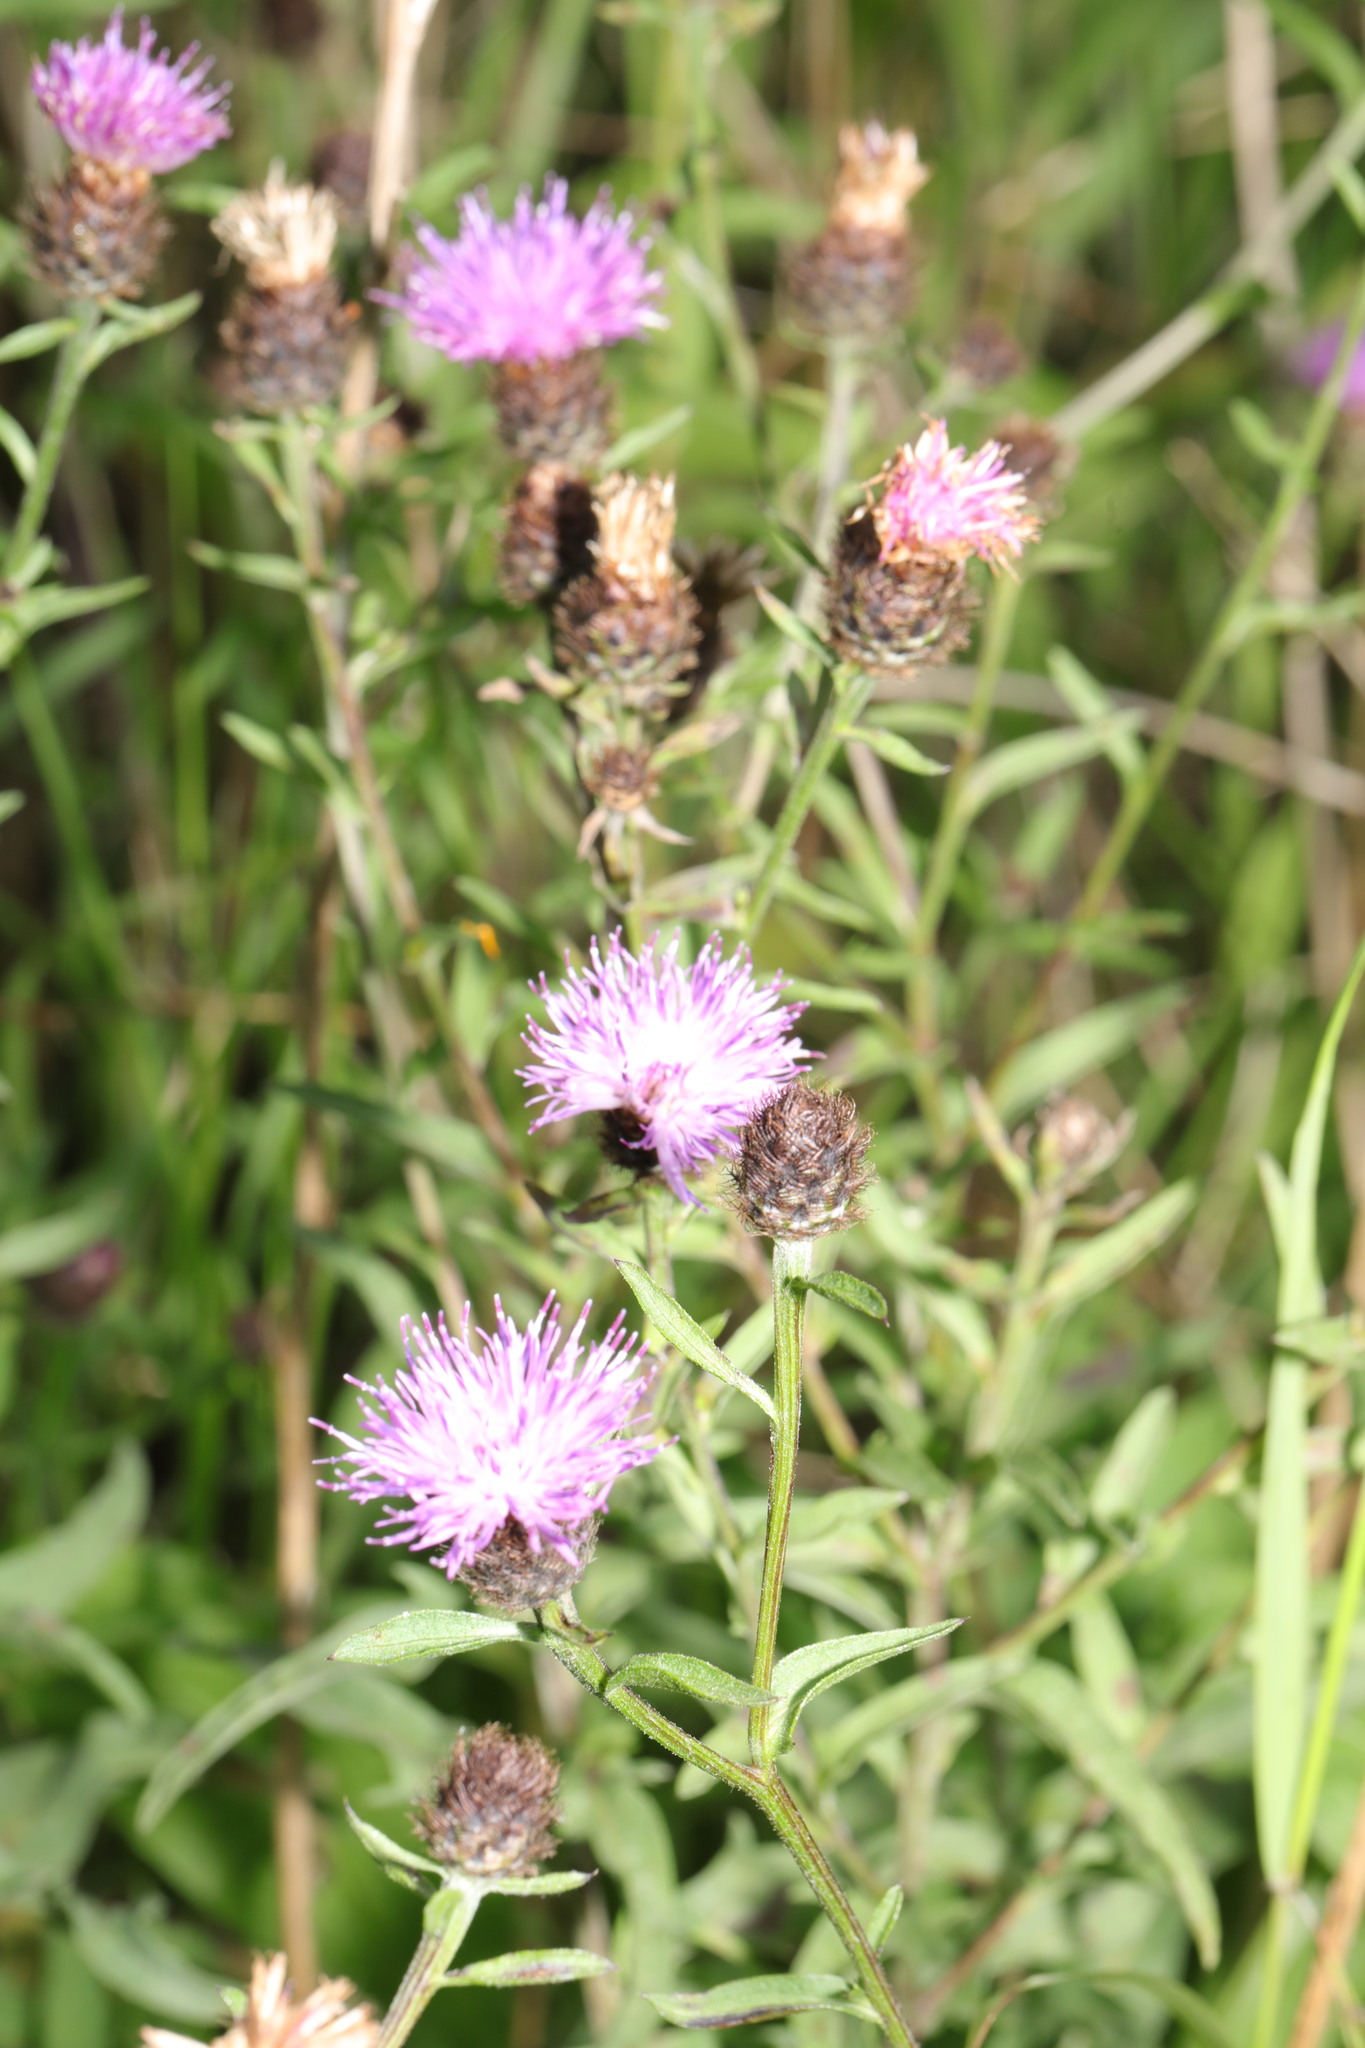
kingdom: Plantae
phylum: Tracheophyta
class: Magnoliopsida
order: Asterales
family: Asteraceae
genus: Centaurea
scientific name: Centaurea nigra
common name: Lesser knapweed
